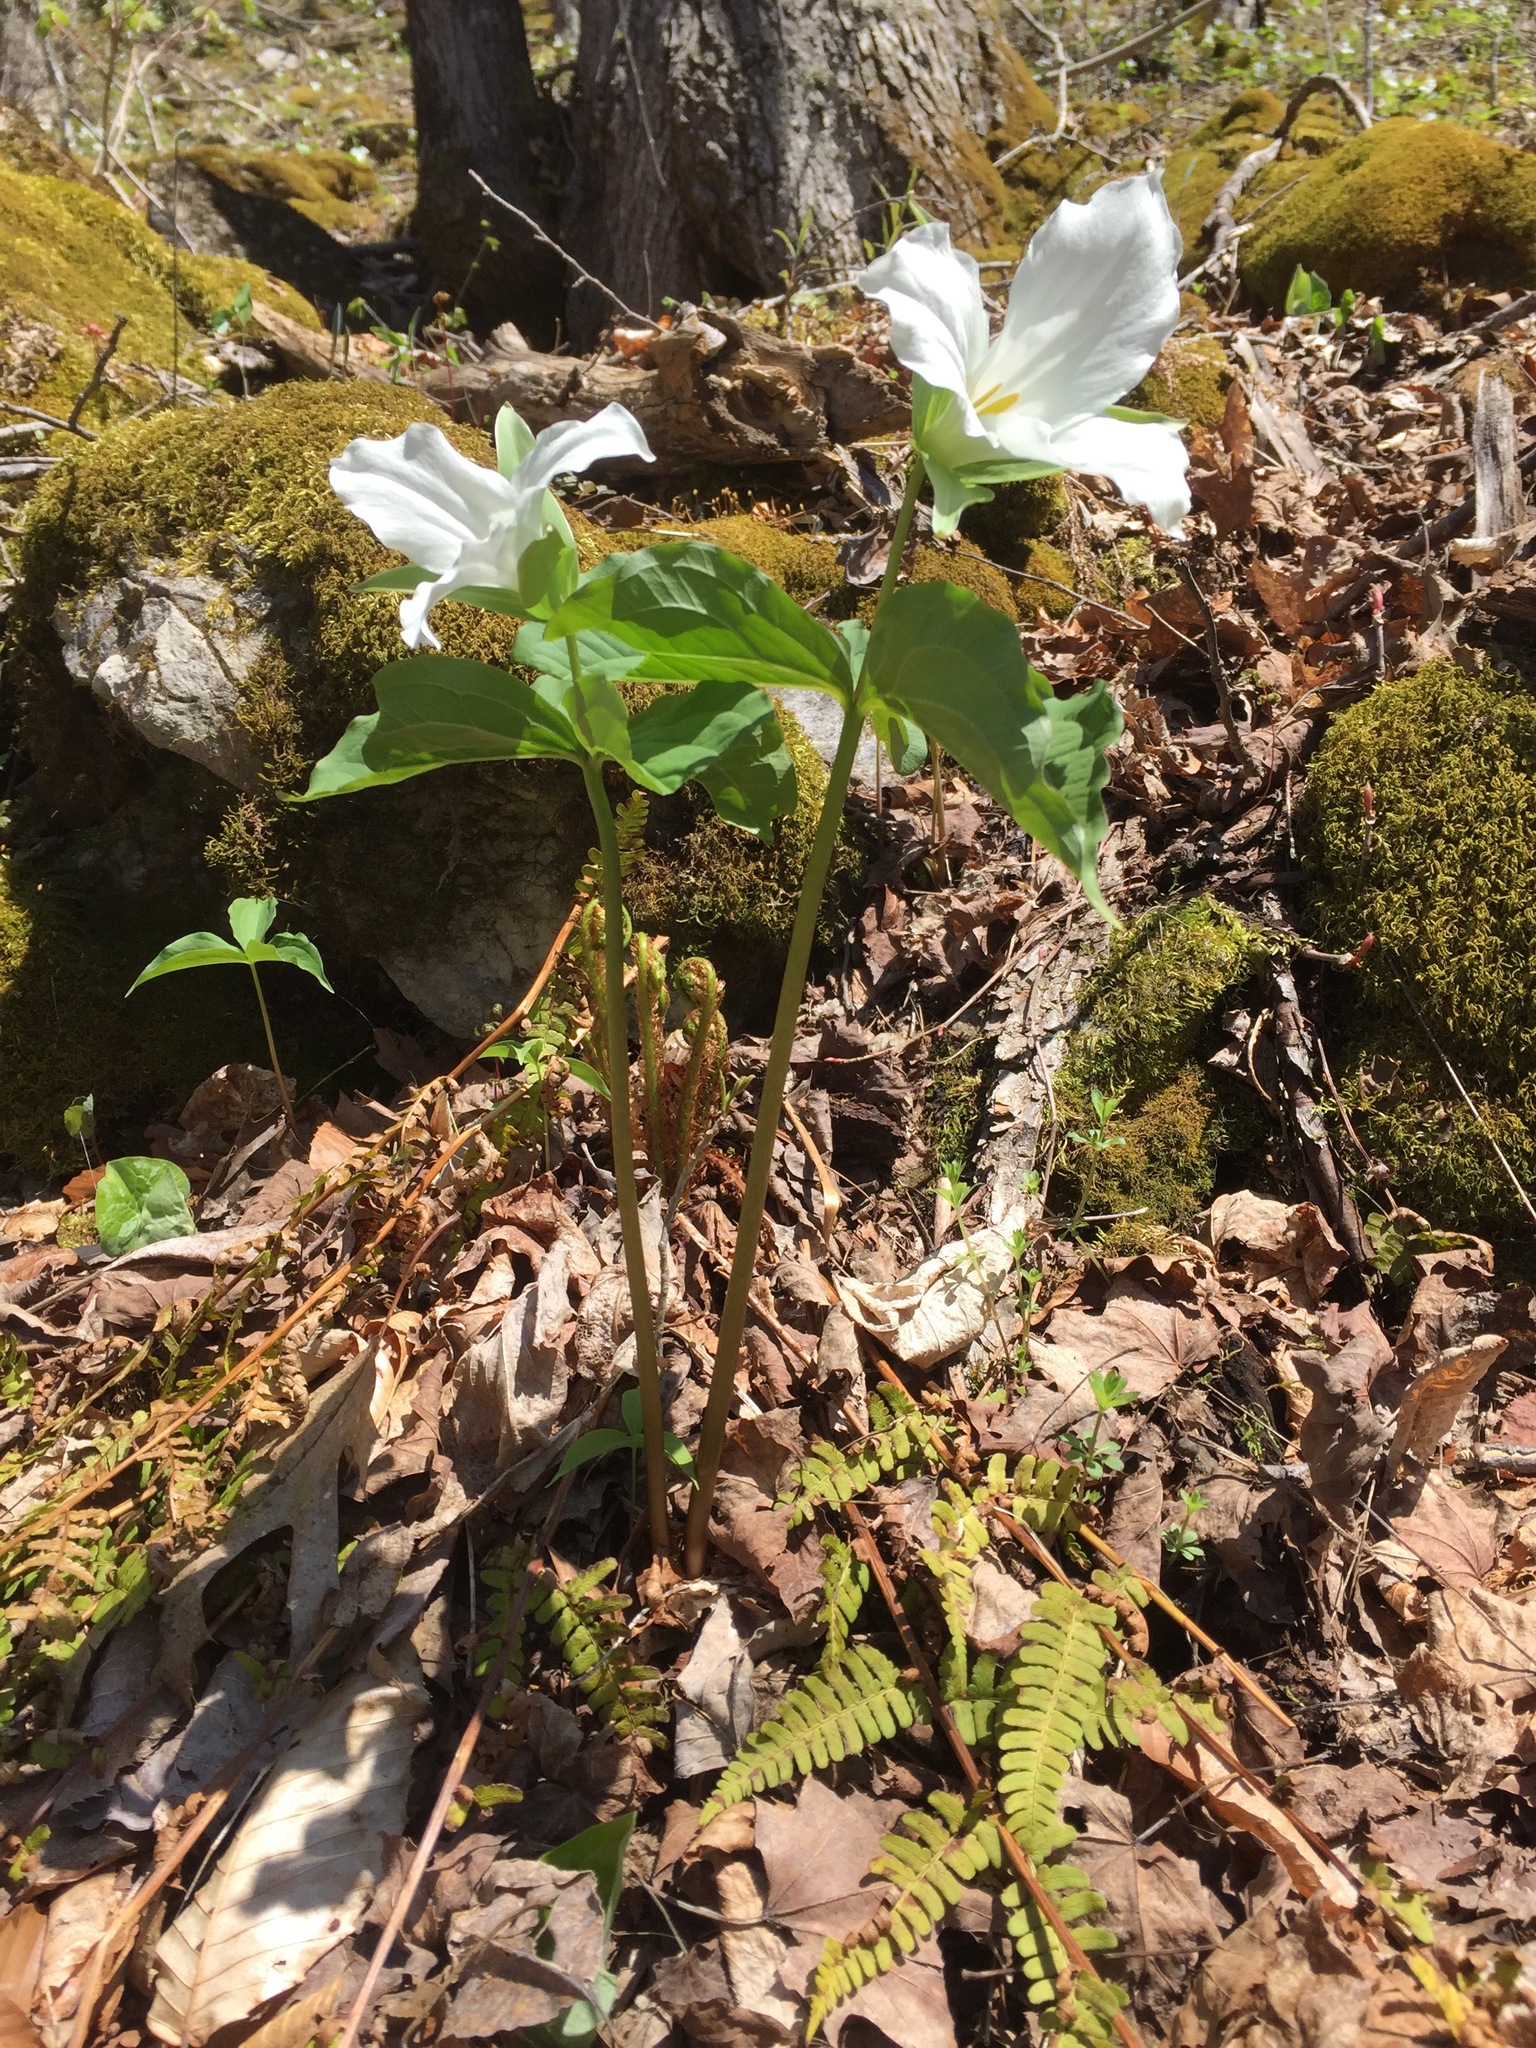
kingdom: Plantae
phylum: Tracheophyta
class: Liliopsida
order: Liliales
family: Melanthiaceae
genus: Trillium
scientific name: Trillium grandiflorum
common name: Great white trillium
